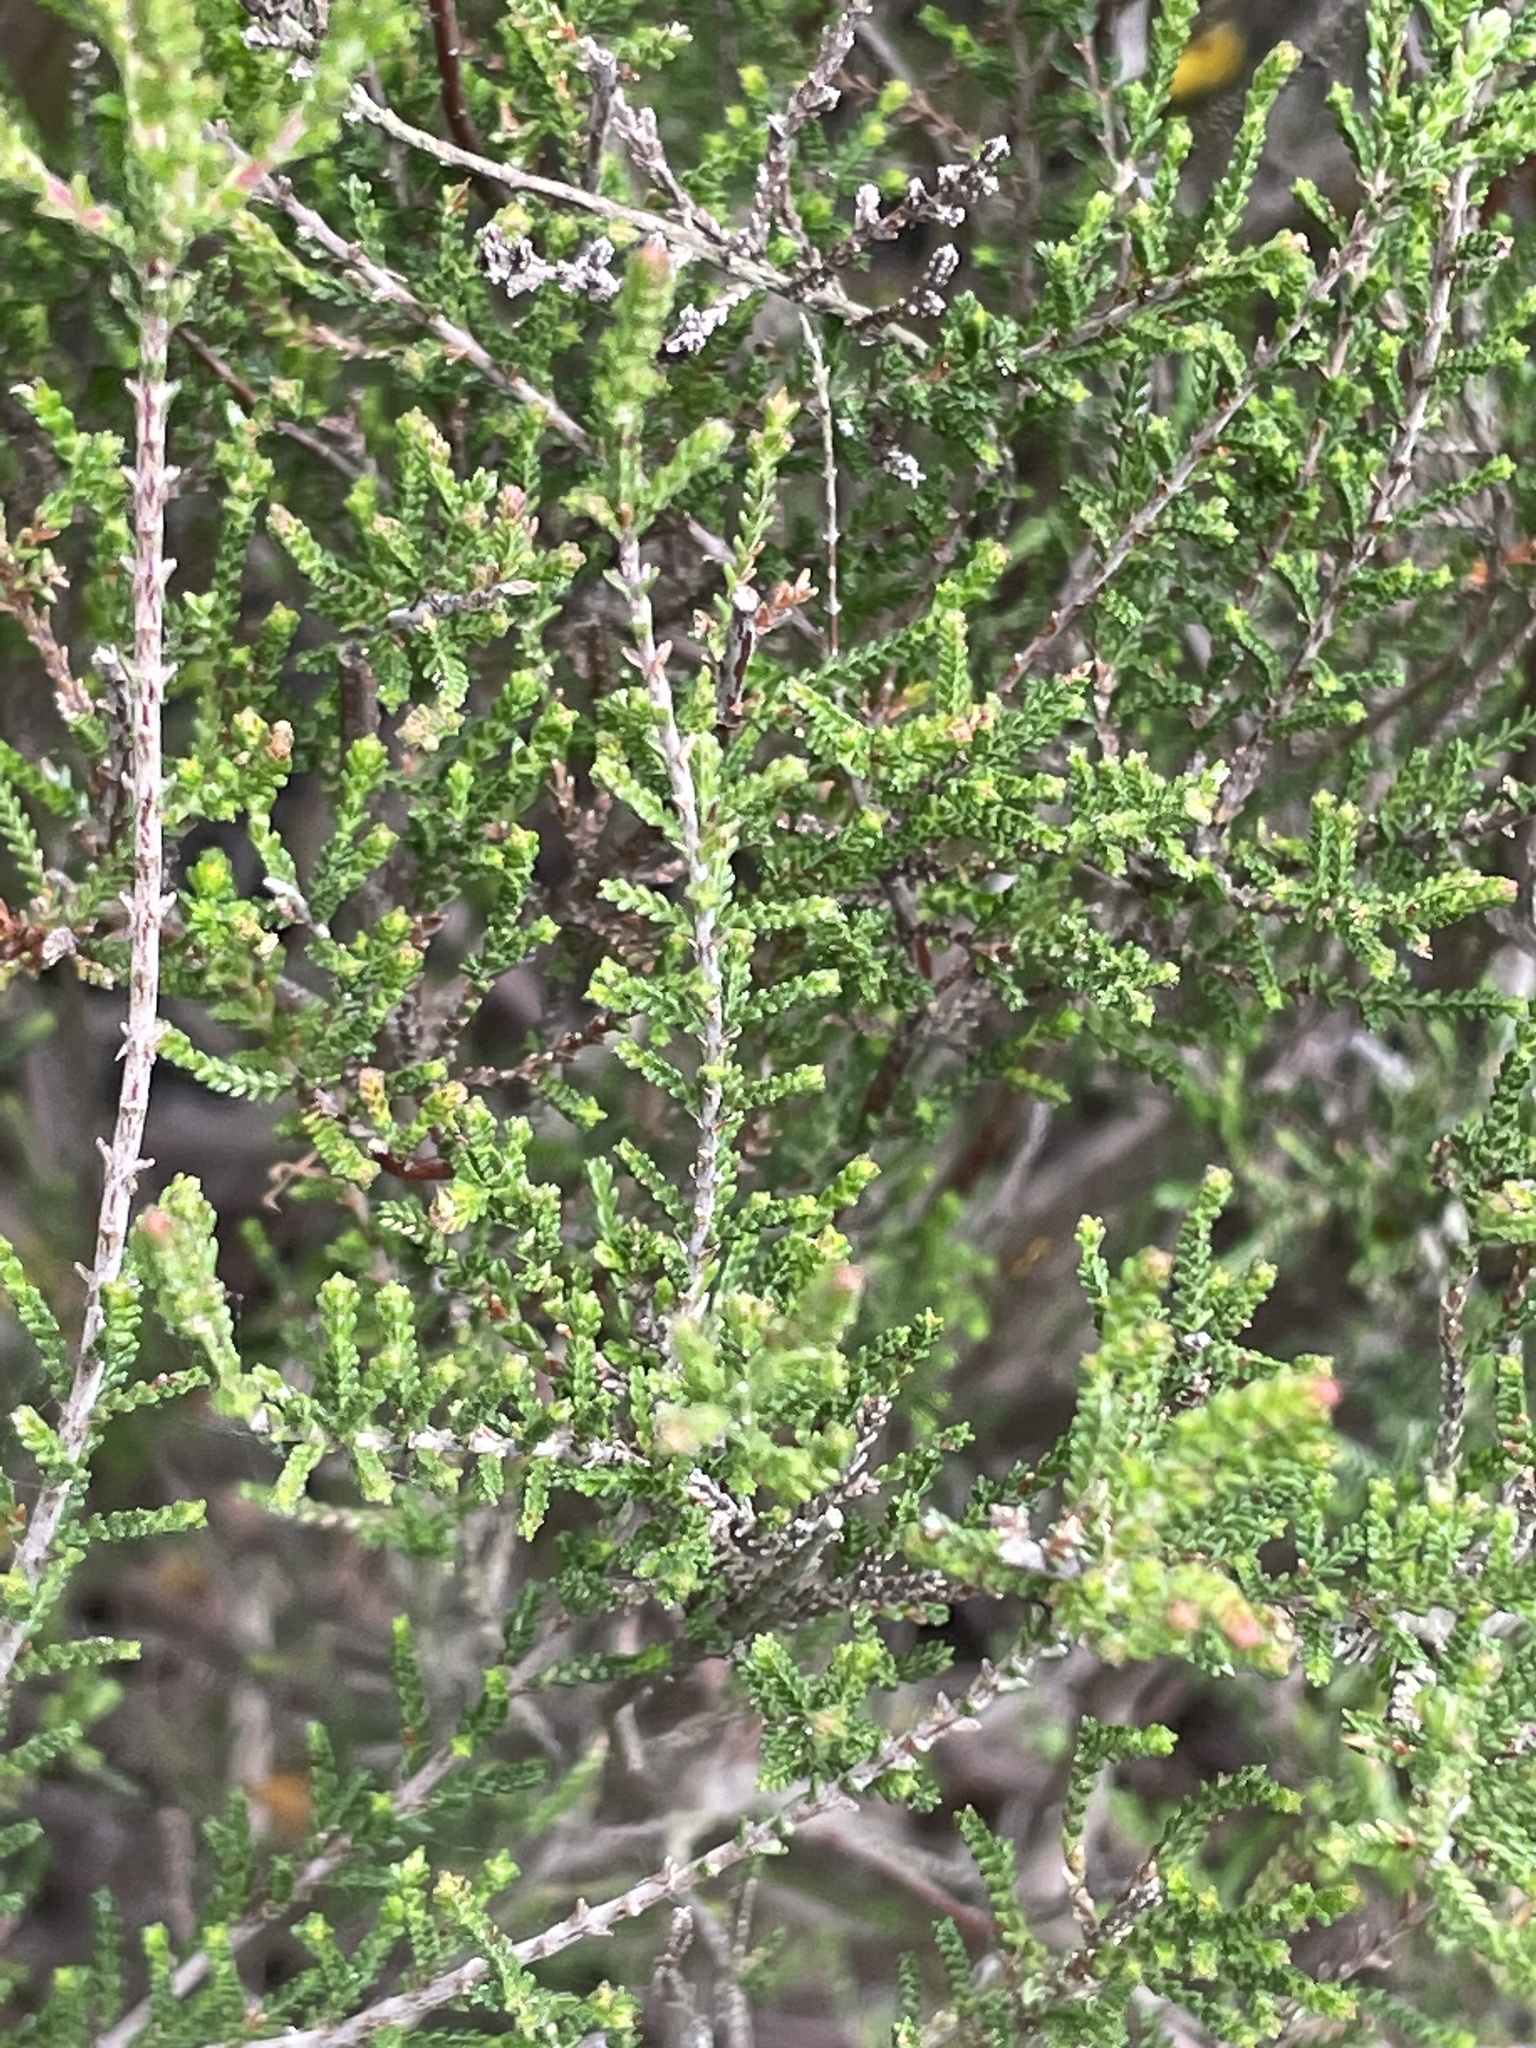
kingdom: Plantae
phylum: Tracheophyta
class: Magnoliopsida
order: Fabales
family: Fabaceae
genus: Cytisus
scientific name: Cytisus scoparius
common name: Scotch broom
